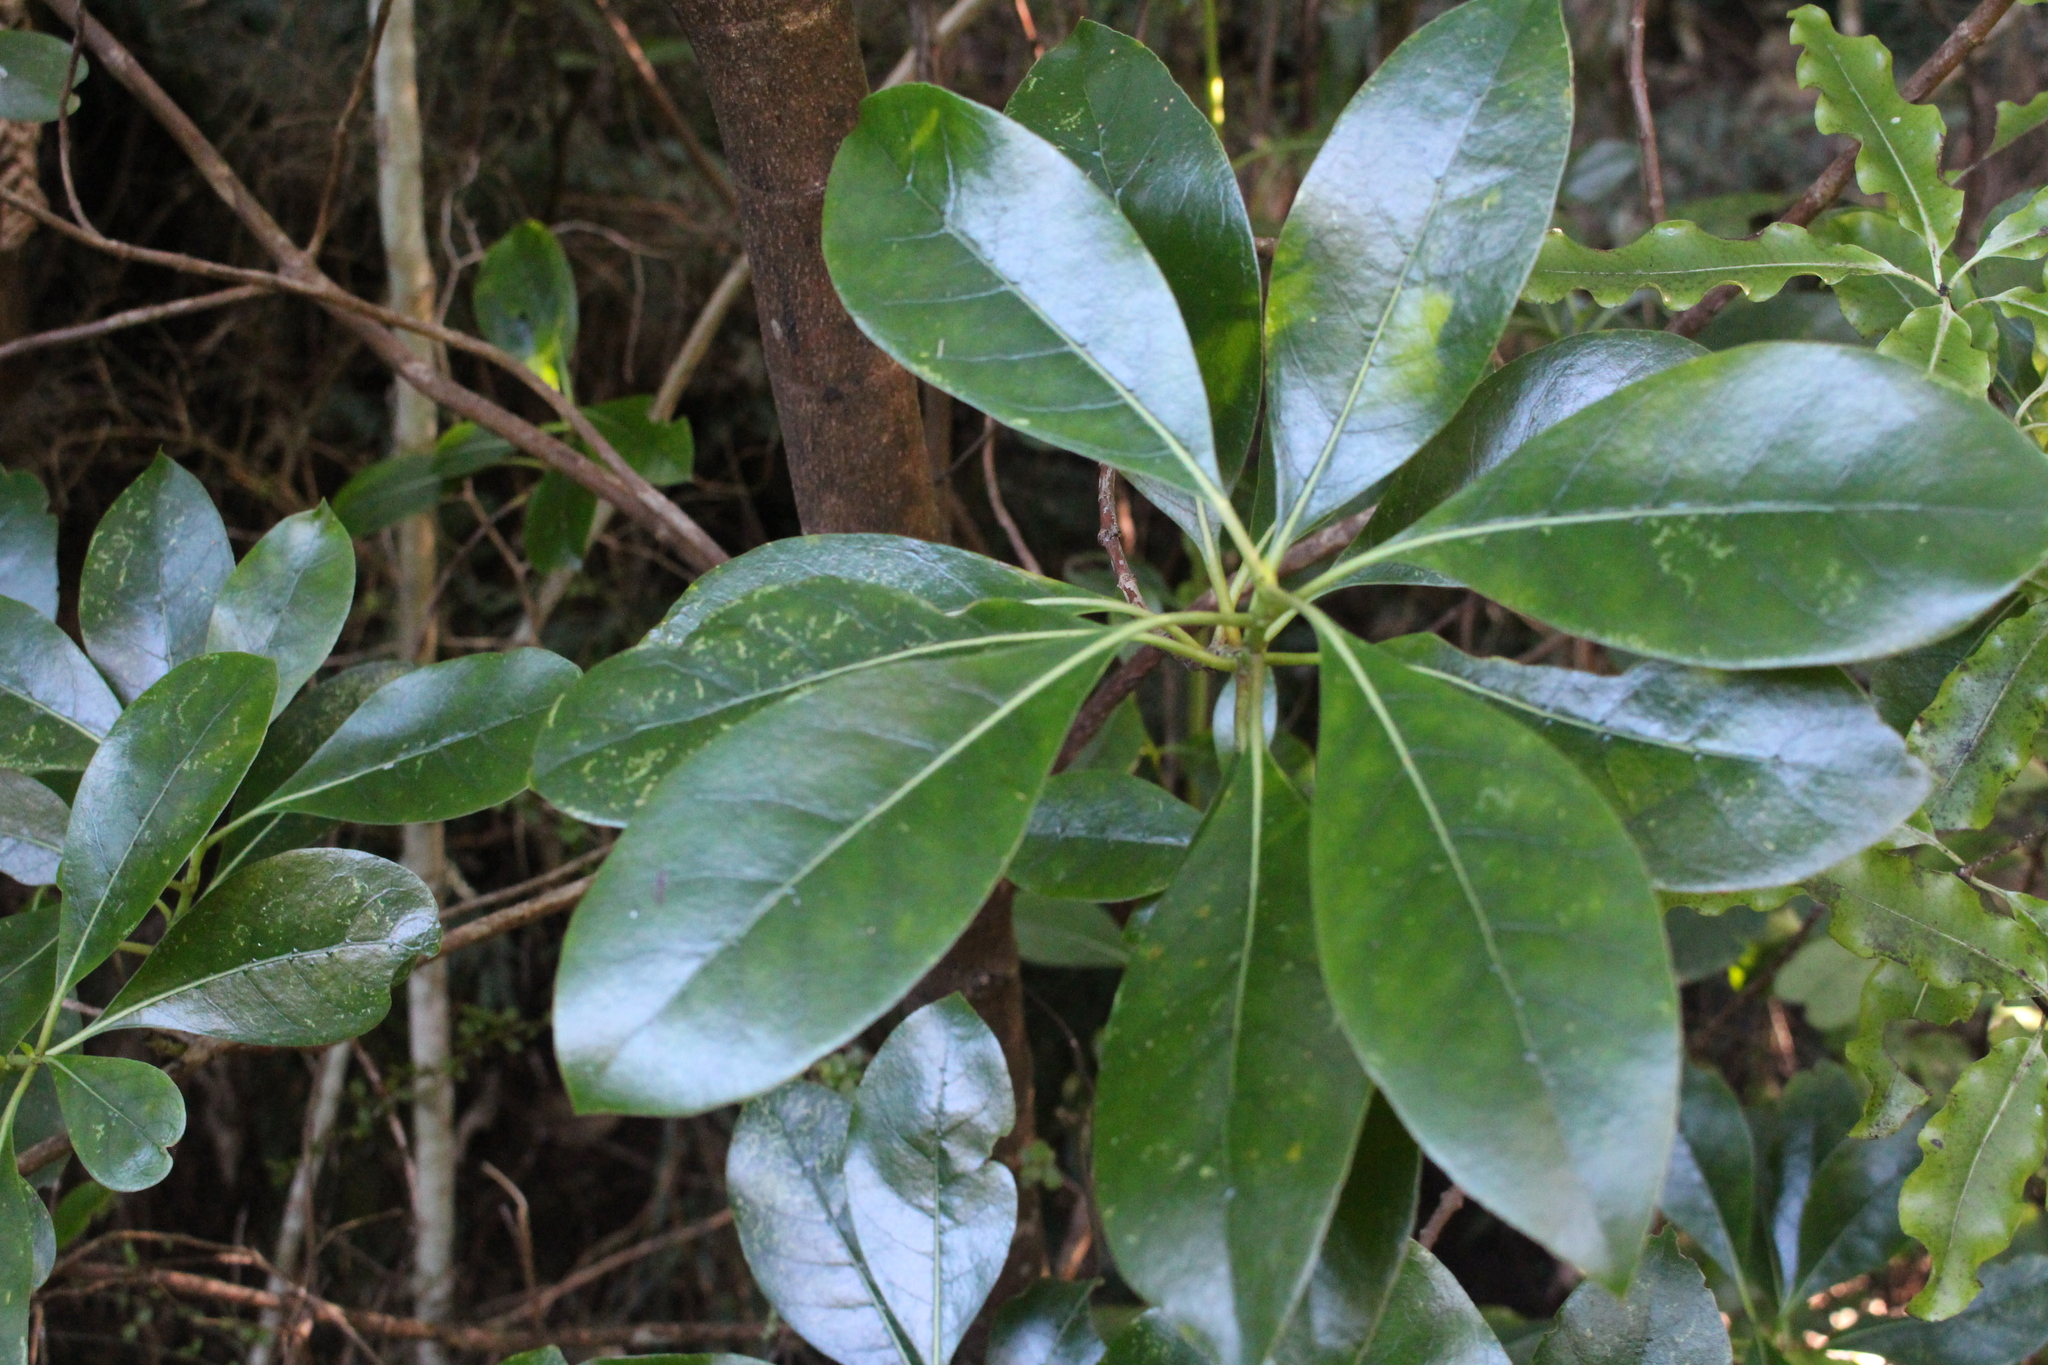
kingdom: Plantae
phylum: Tracheophyta
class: Magnoliopsida
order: Gentianales
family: Rubiaceae
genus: Coprosma
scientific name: Coprosma lucida
